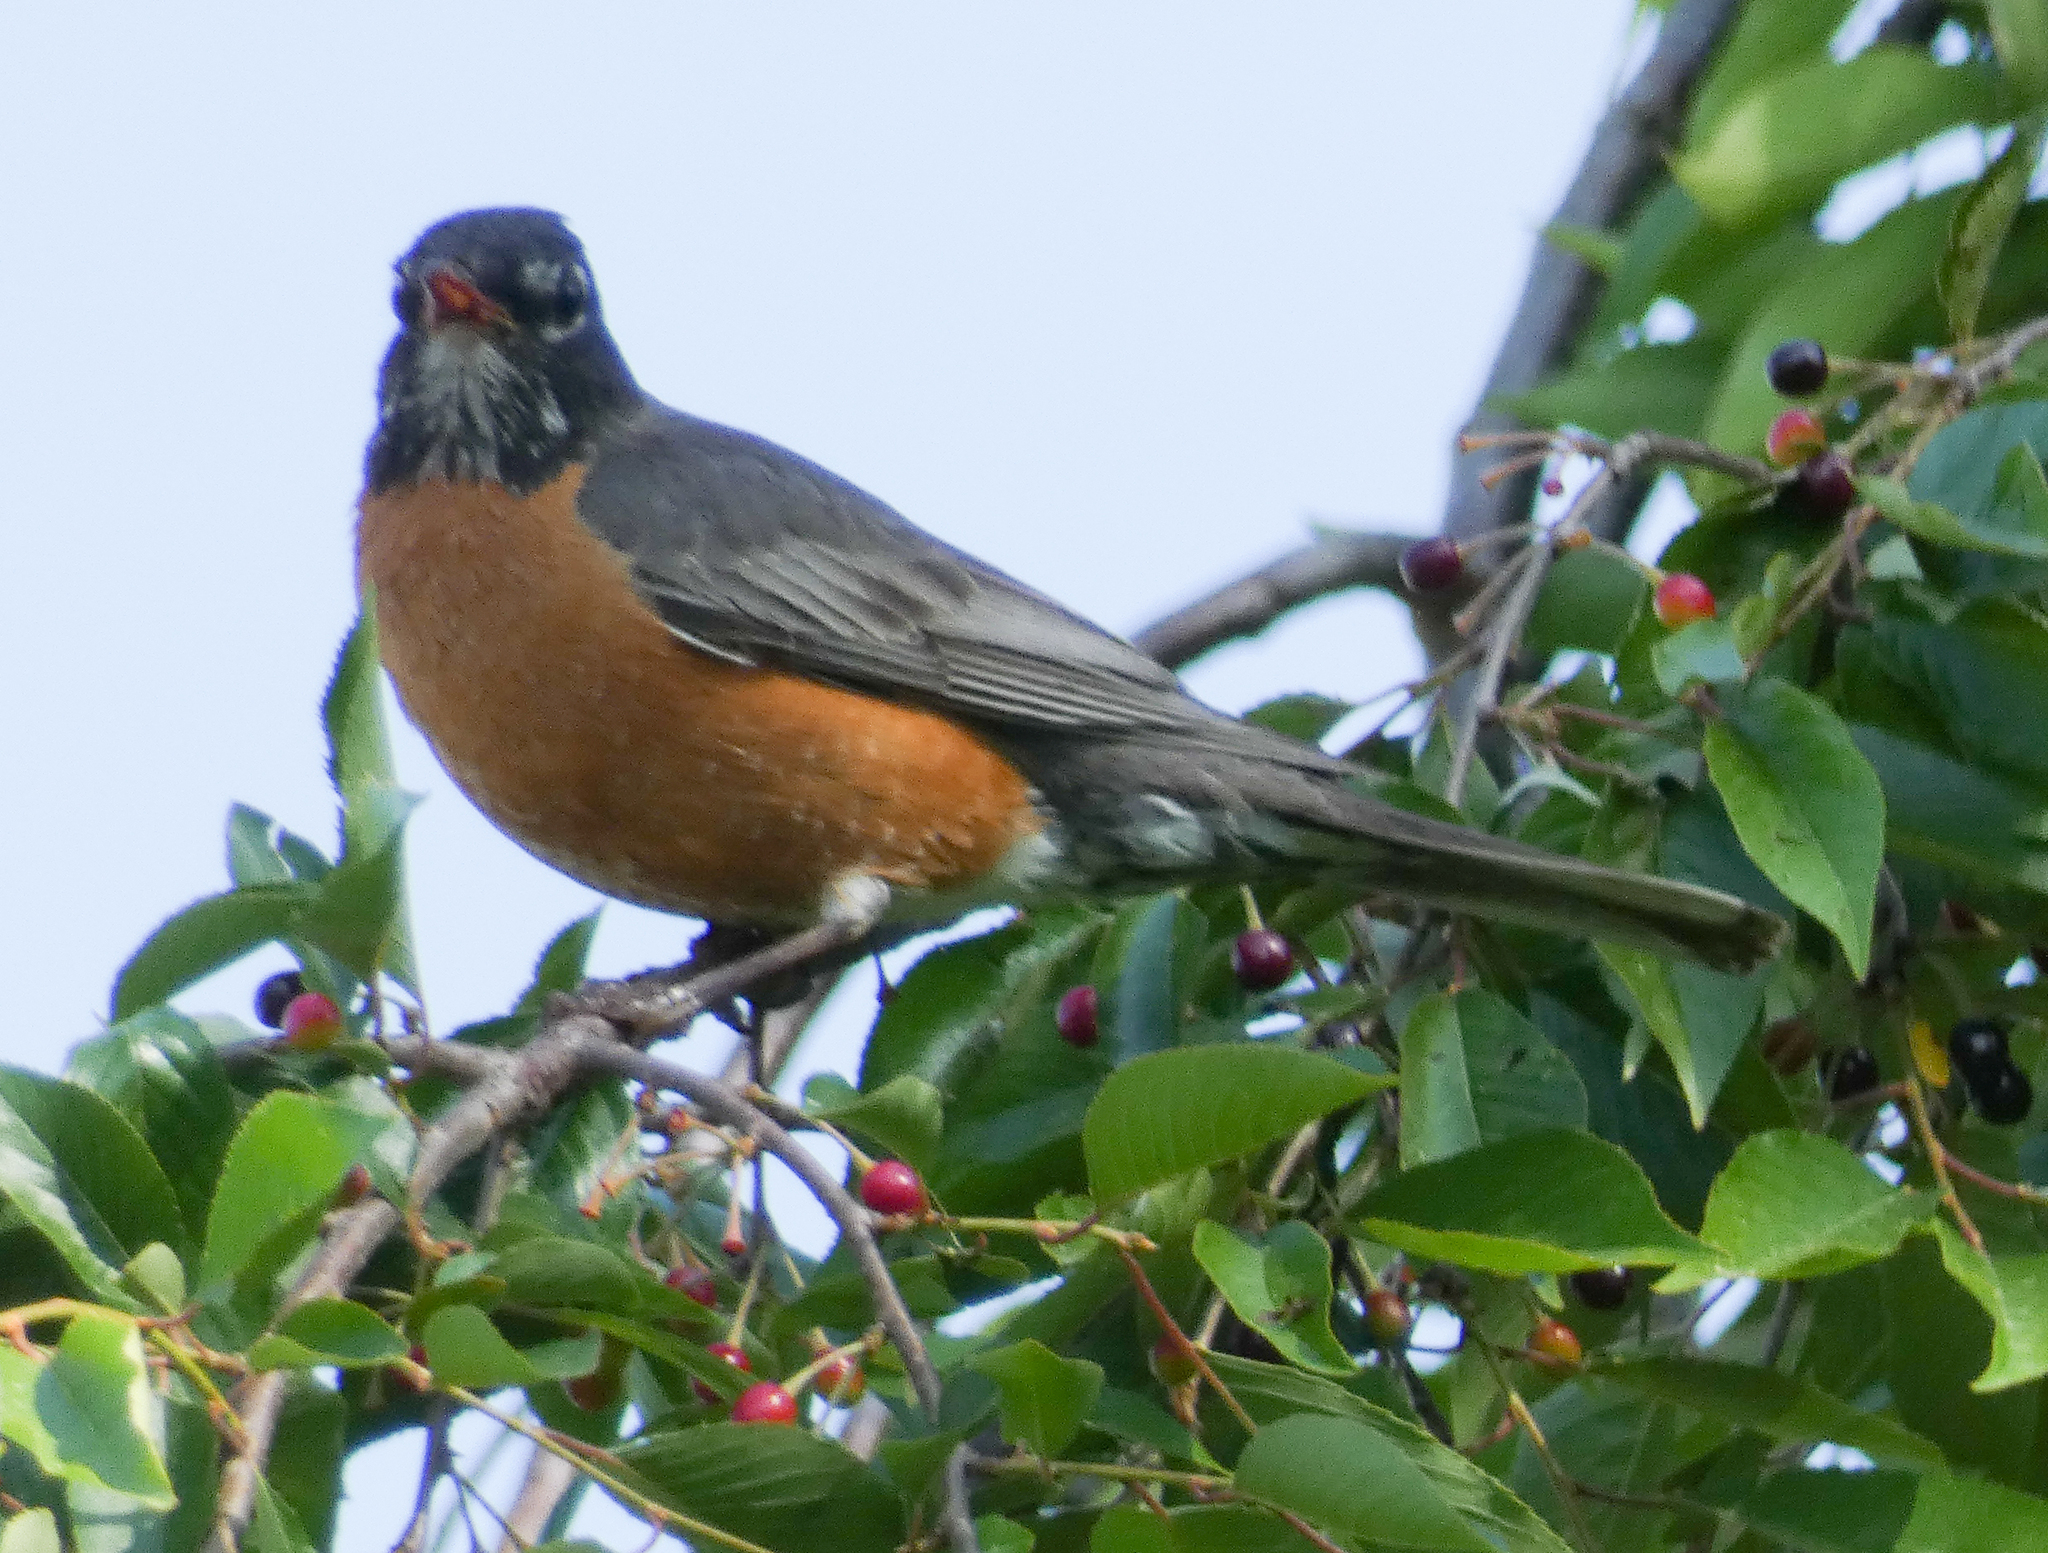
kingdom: Animalia
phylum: Chordata
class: Aves
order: Passeriformes
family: Turdidae
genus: Turdus
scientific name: Turdus migratorius
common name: American robin
